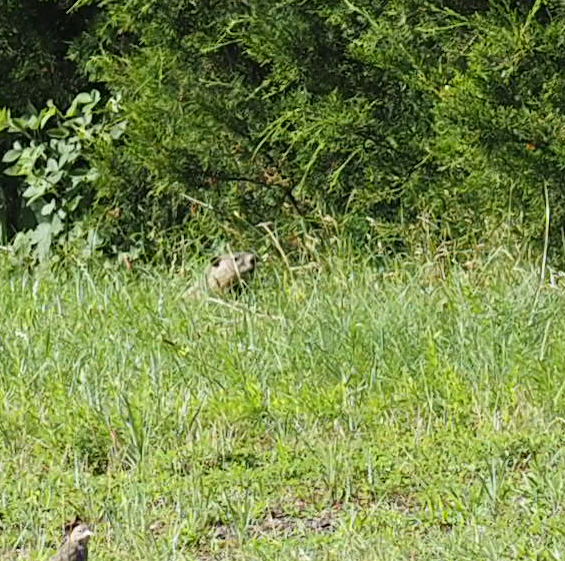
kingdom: Animalia
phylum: Chordata
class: Mammalia
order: Rodentia
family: Sciuridae
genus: Marmota
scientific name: Marmota monax
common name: Groundhog
